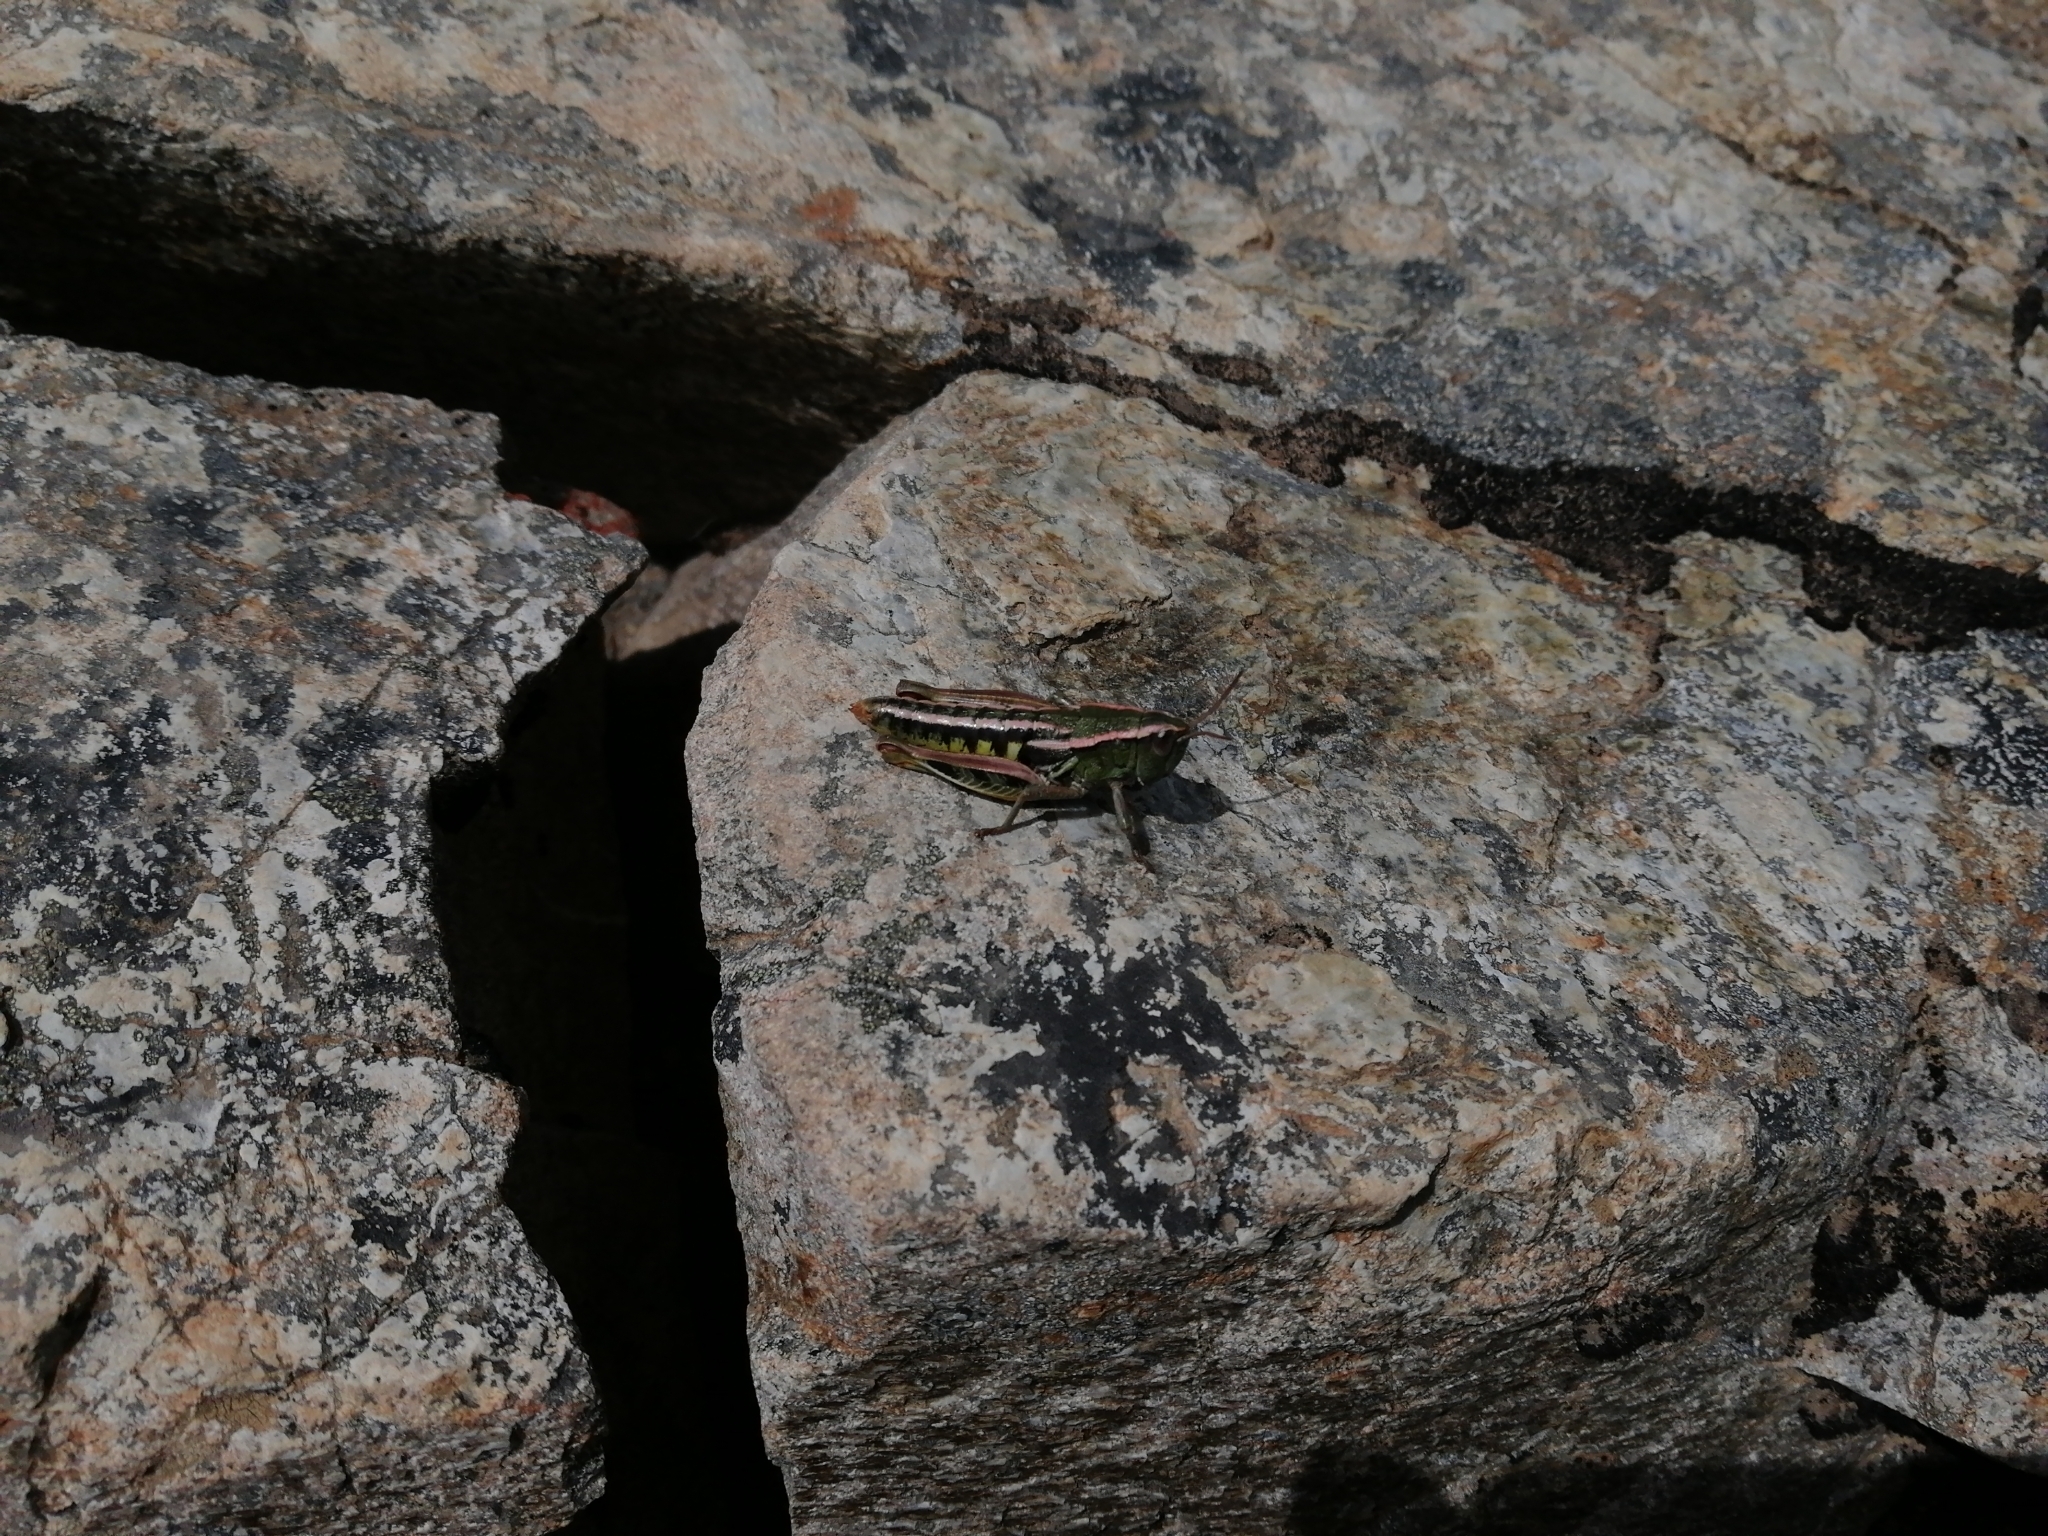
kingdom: Animalia
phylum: Arthropoda
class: Insecta
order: Orthoptera
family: Acrididae
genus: Sigaus
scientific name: Sigaus
